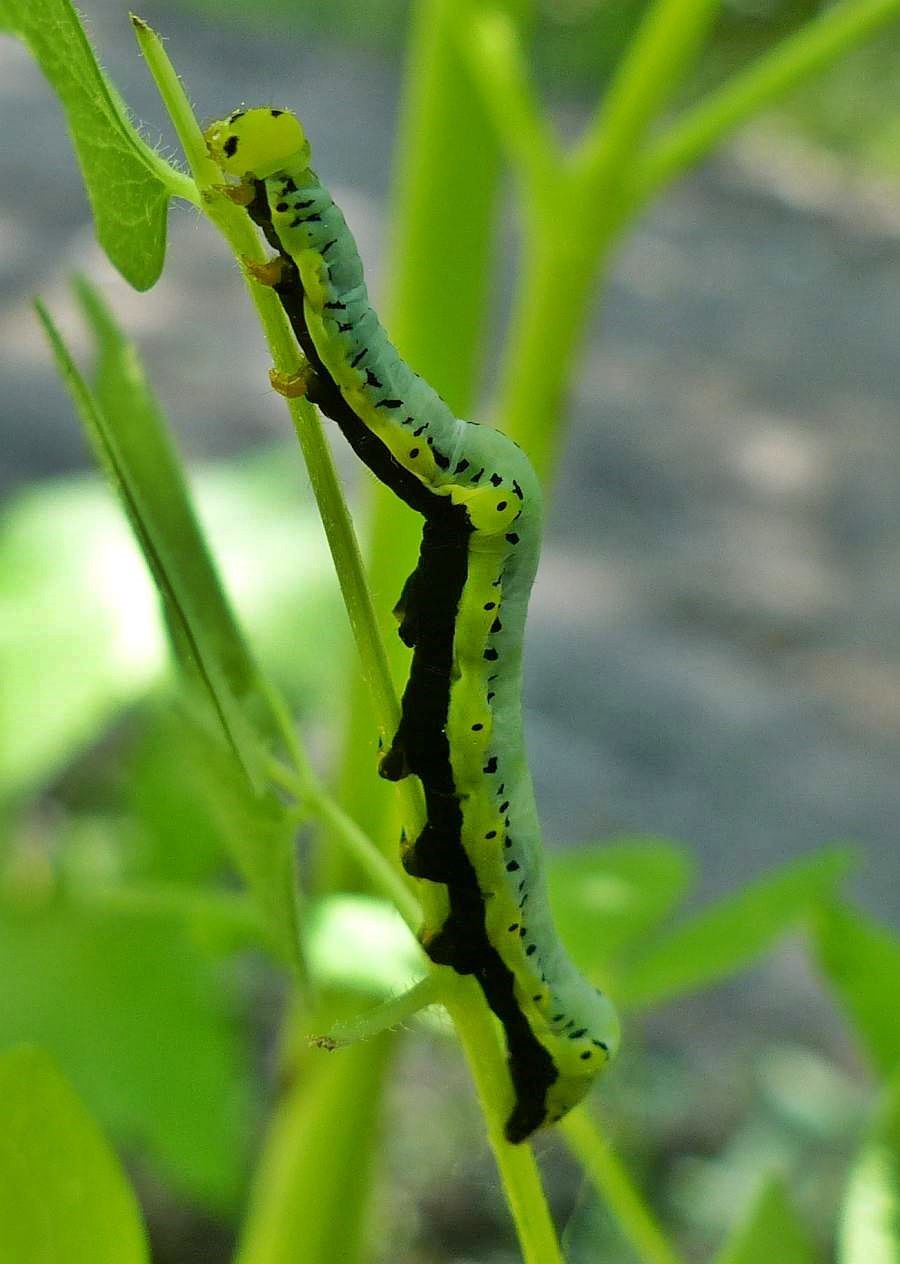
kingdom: Animalia
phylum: Arthropoda
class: Insecta
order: Lepidoptera
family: Erebidae
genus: Calyptra
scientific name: Calyptra canadensis
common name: Canadian owlet
